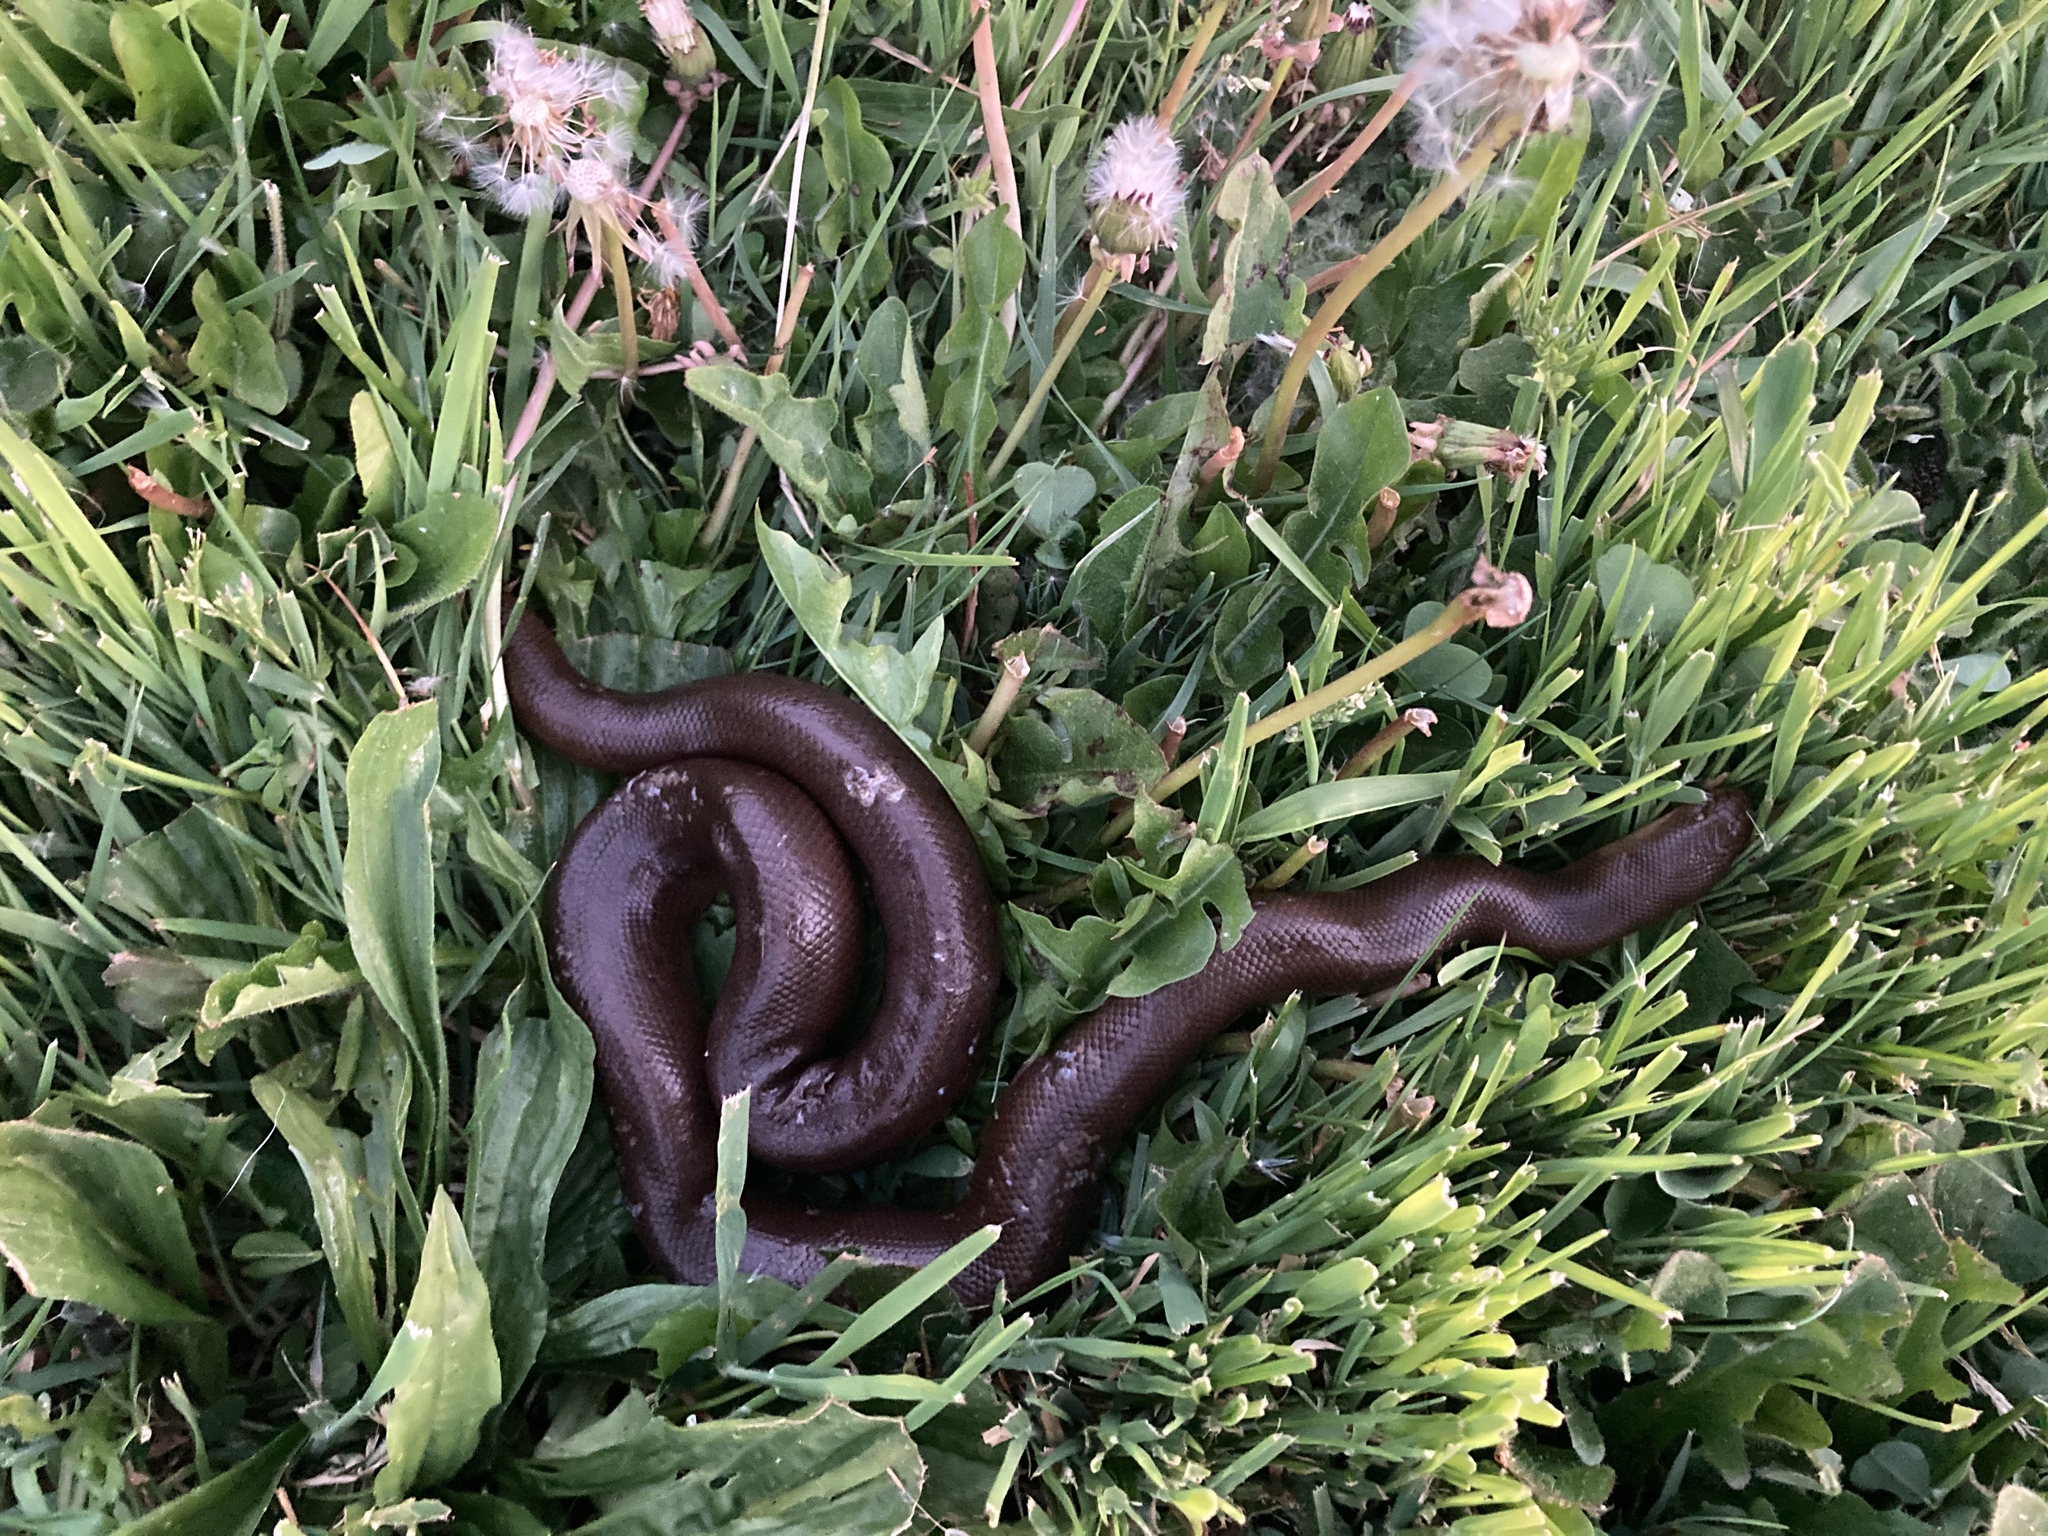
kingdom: Animalia
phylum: Chordata
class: Squamata
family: Boidae
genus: Charina
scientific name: Charina bottae
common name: Northern rubber boa
